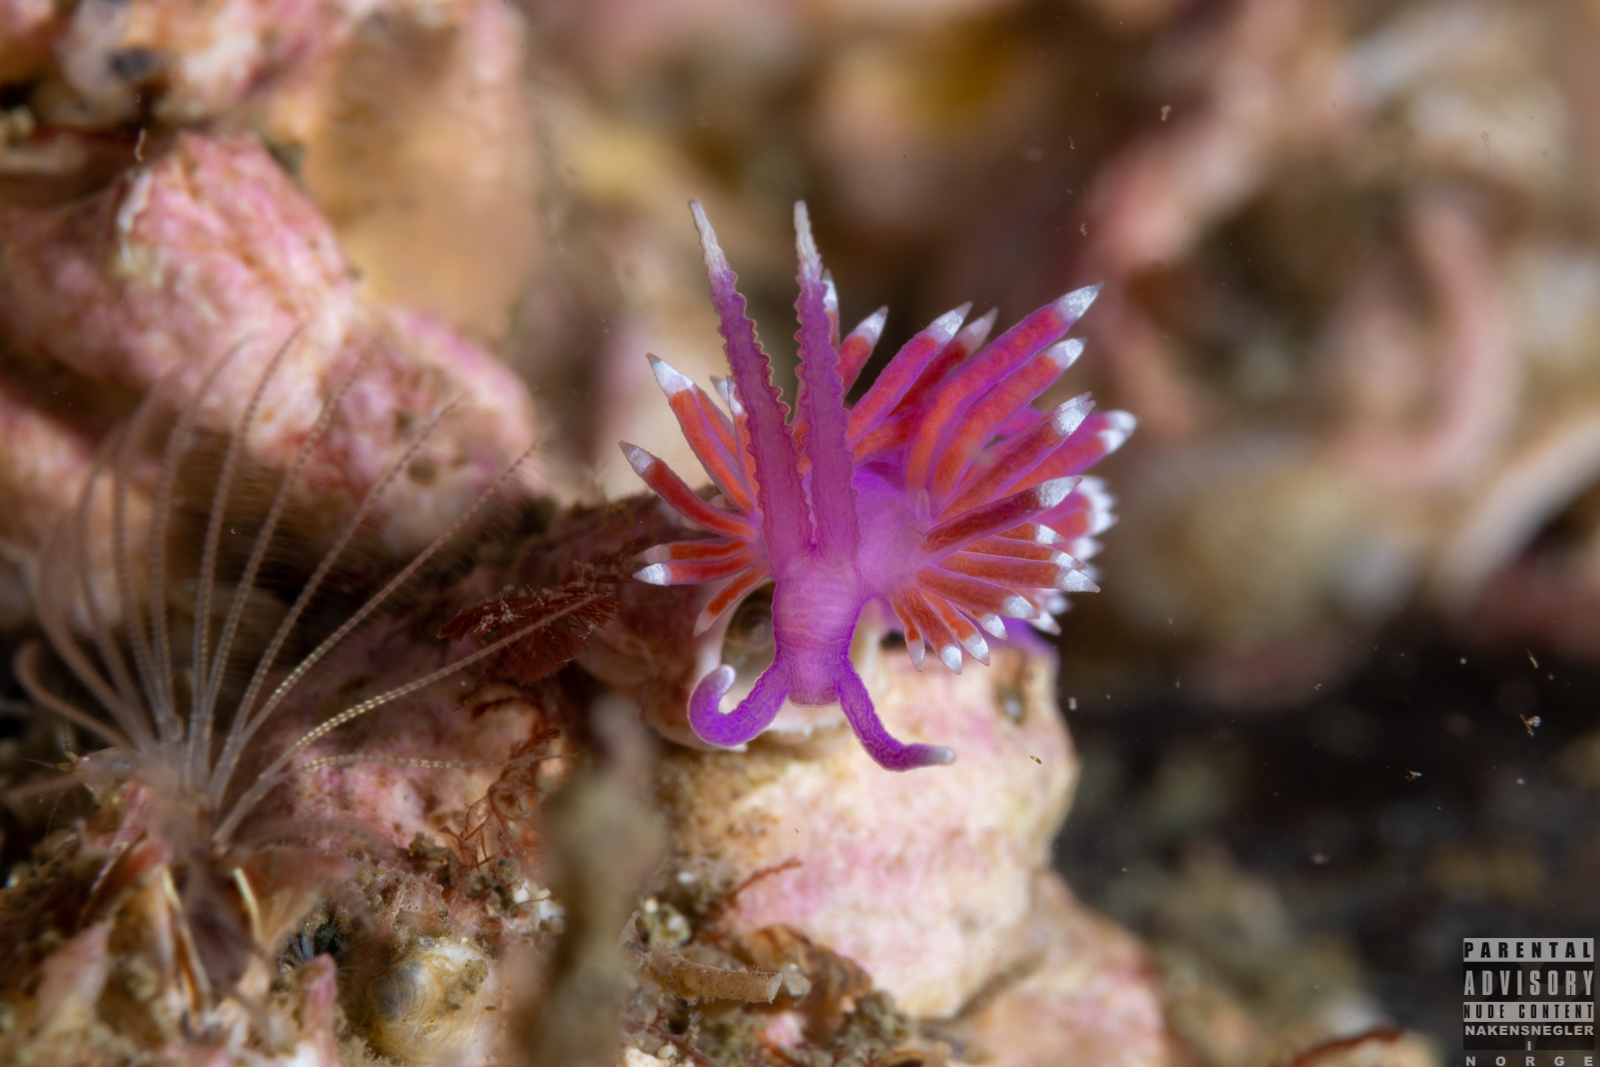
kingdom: Animalia
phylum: Mollusca
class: Gastropoda
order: Nudibranchia
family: Flabellinidae
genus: Edmundsella
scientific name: Edmundsella pedata
